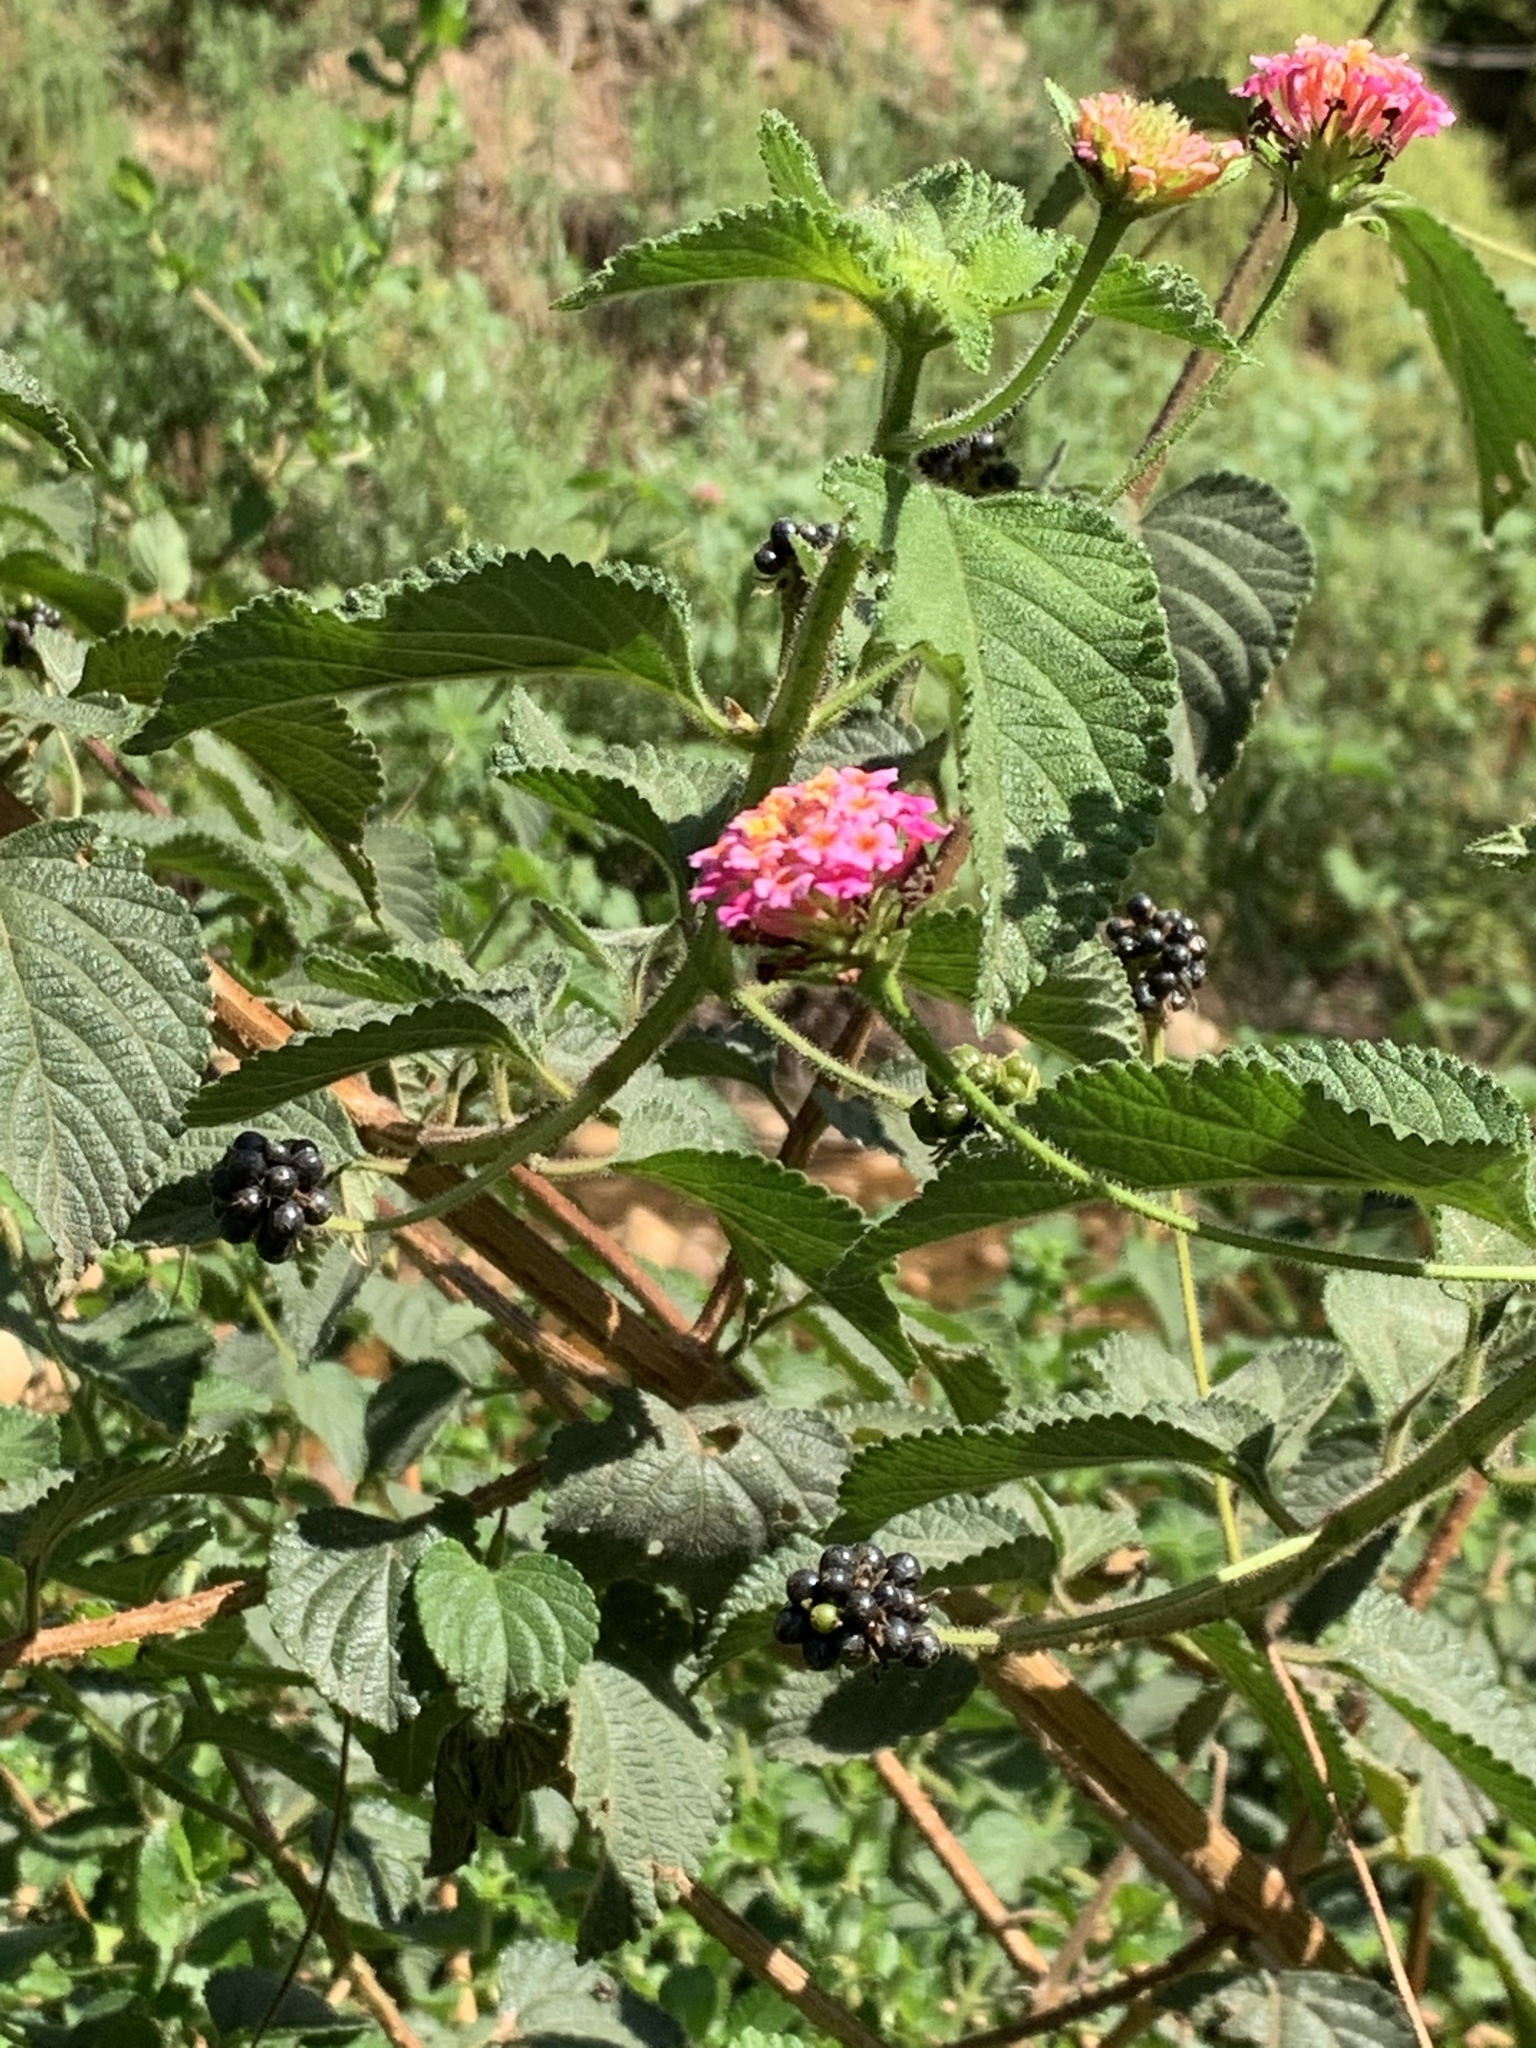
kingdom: Plantae
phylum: Tracheophyta
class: Magnoliopsida
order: Lamiales
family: Verbenaceae
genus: Lantana
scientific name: Lantana camara
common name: Lantana
